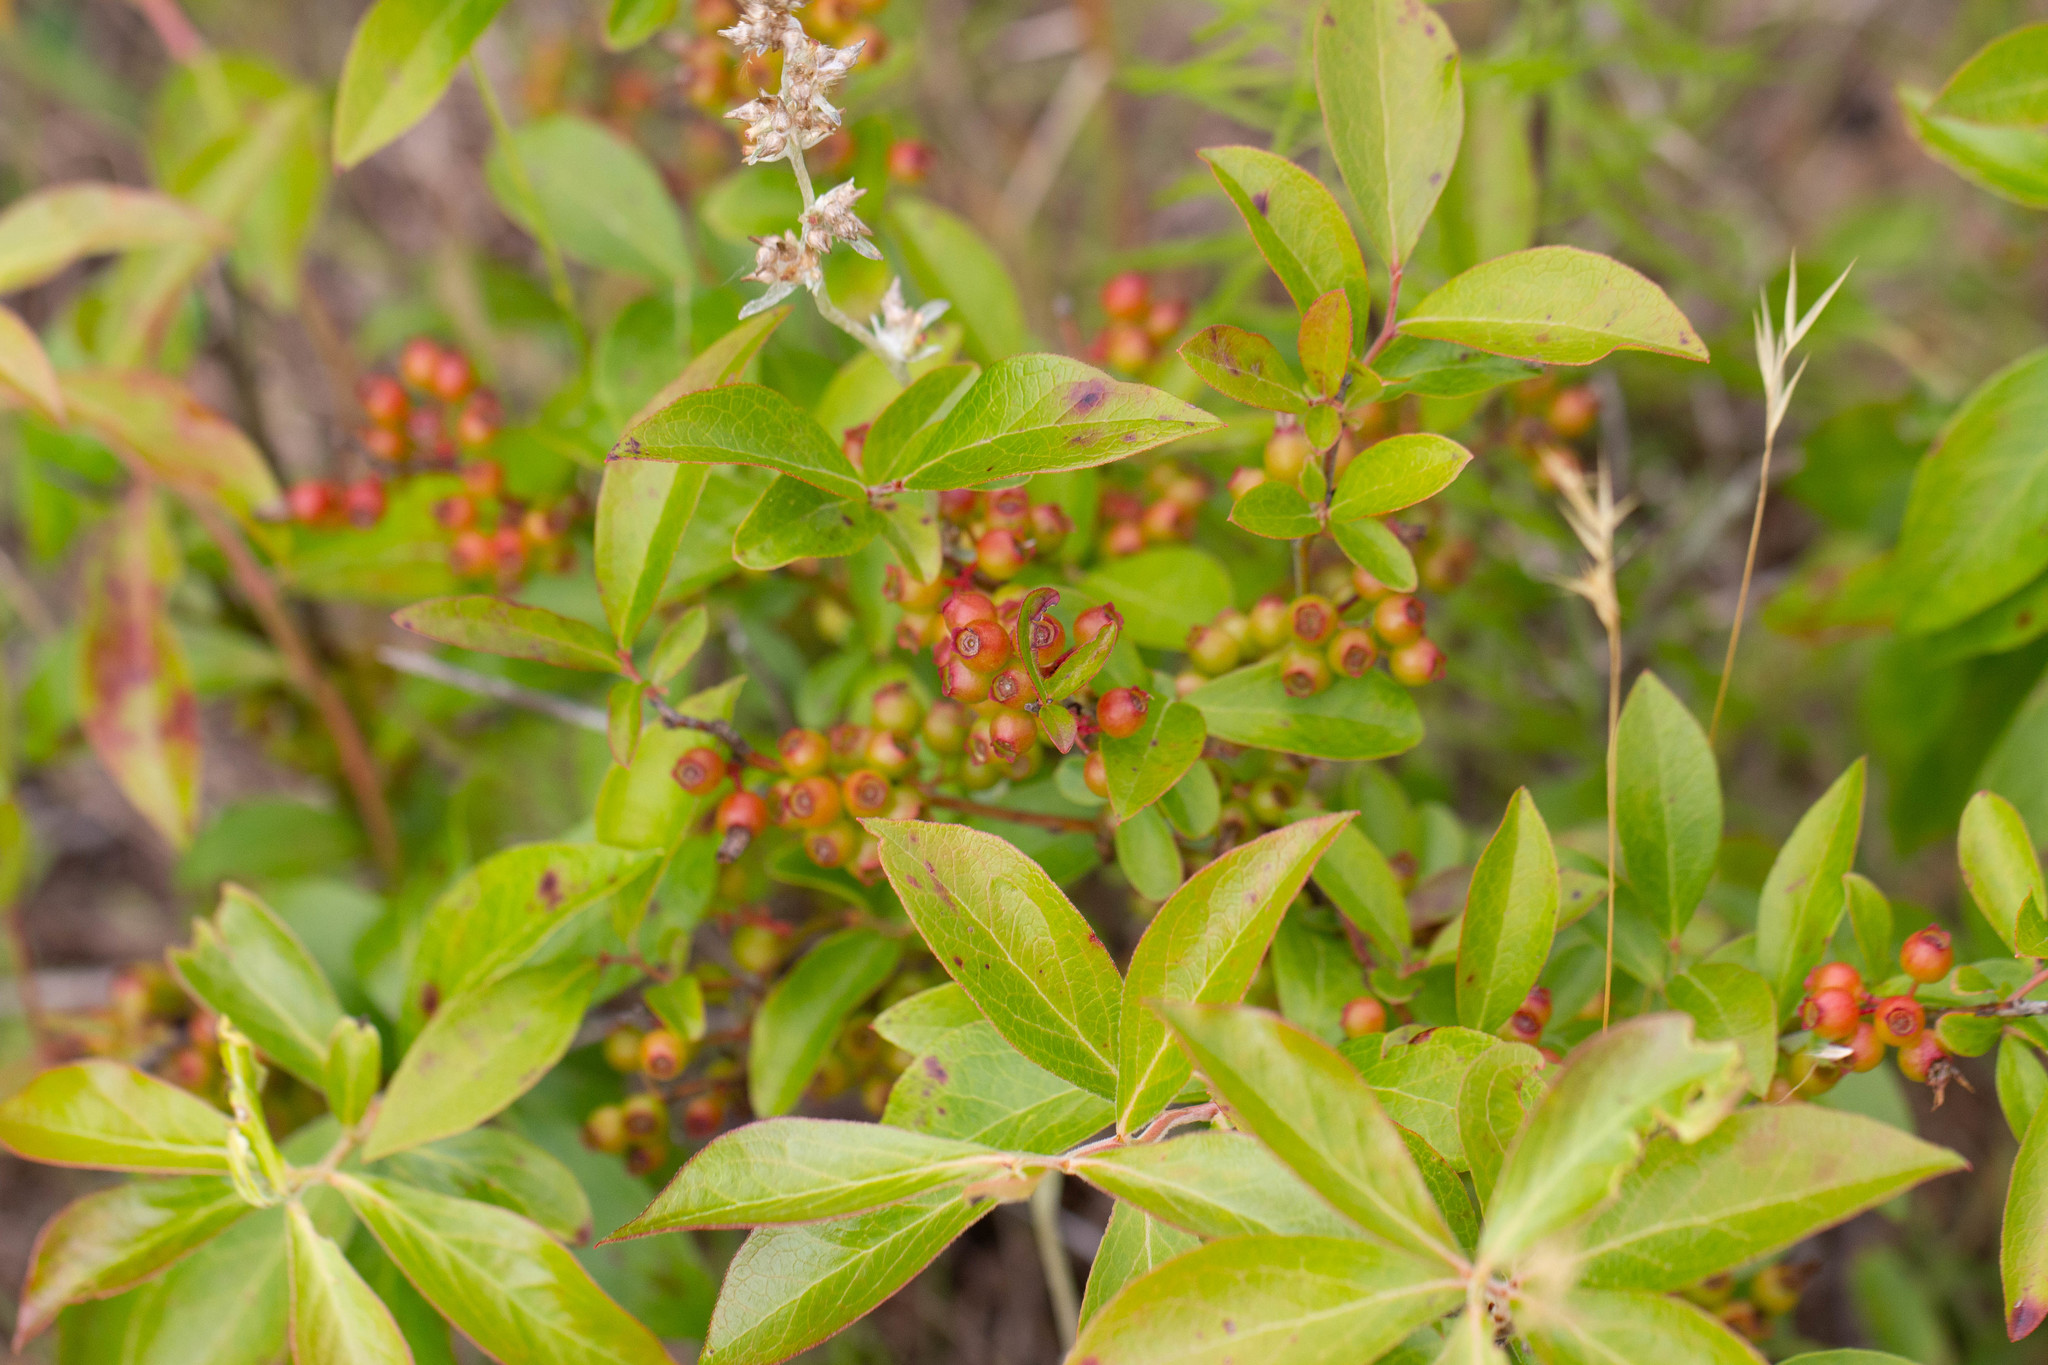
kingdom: Plantae
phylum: Tracheophyta
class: Magnoliopsida
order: Ericales
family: Ericaceae
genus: Vaccinium
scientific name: Vaccinium corymbosum
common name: Blueberry
